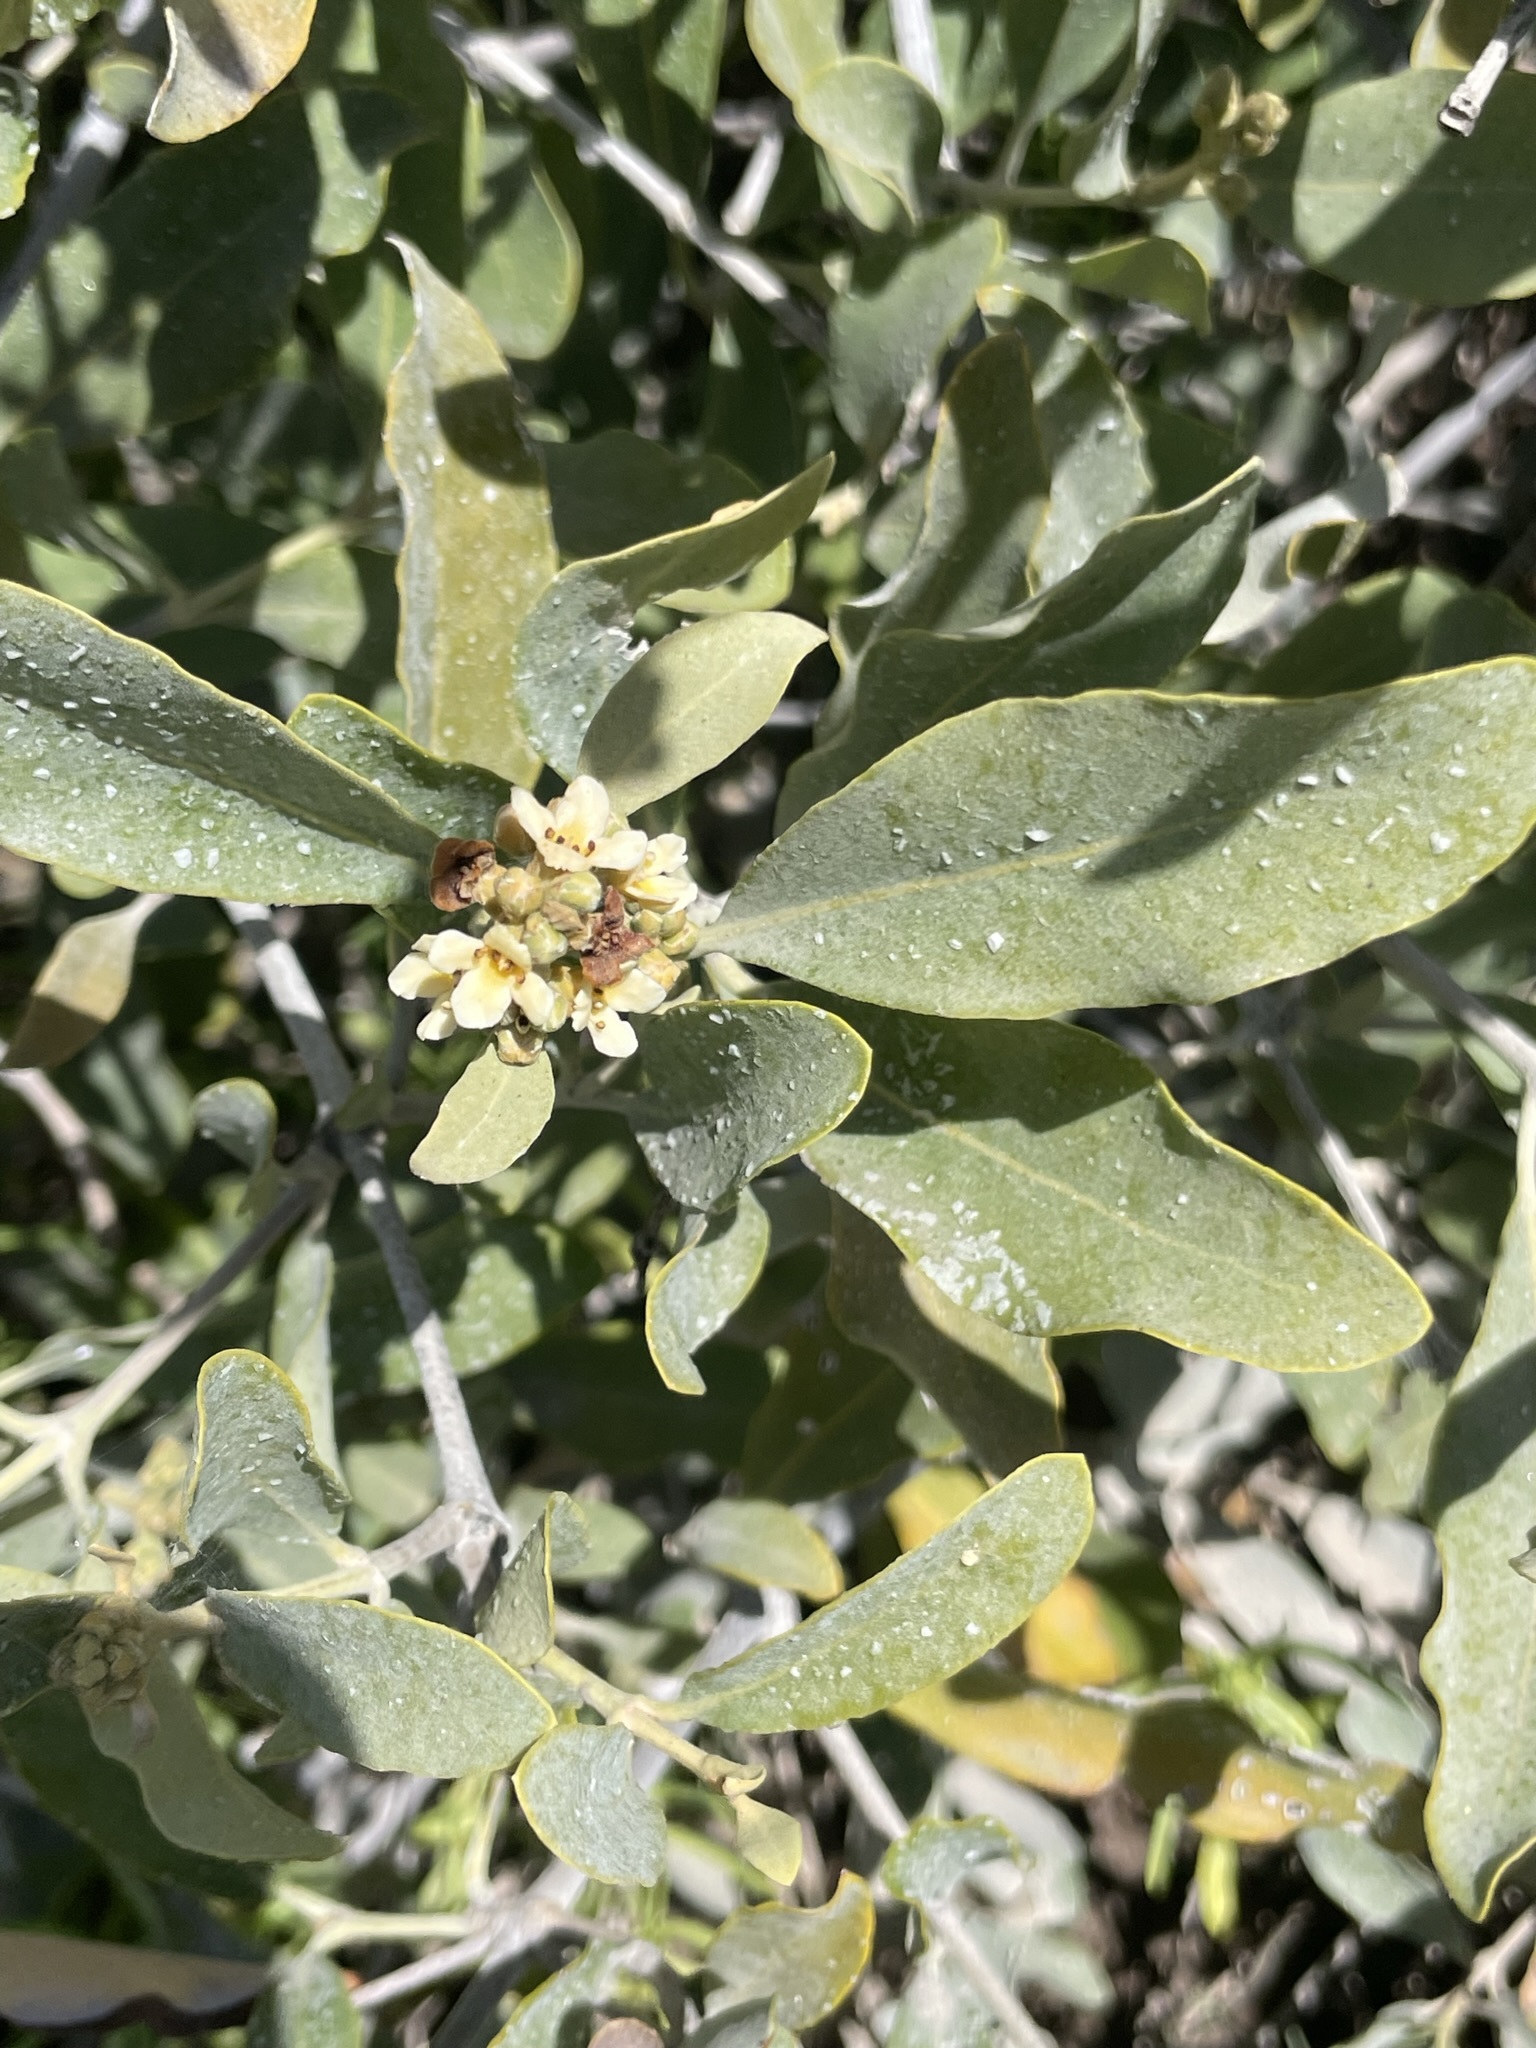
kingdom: Plantae
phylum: Tracheophyta
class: Magnoliopsida
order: Lamiales
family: Acanthaceae
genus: Avicennia
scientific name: Avicennia germinans
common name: Black mangrove
